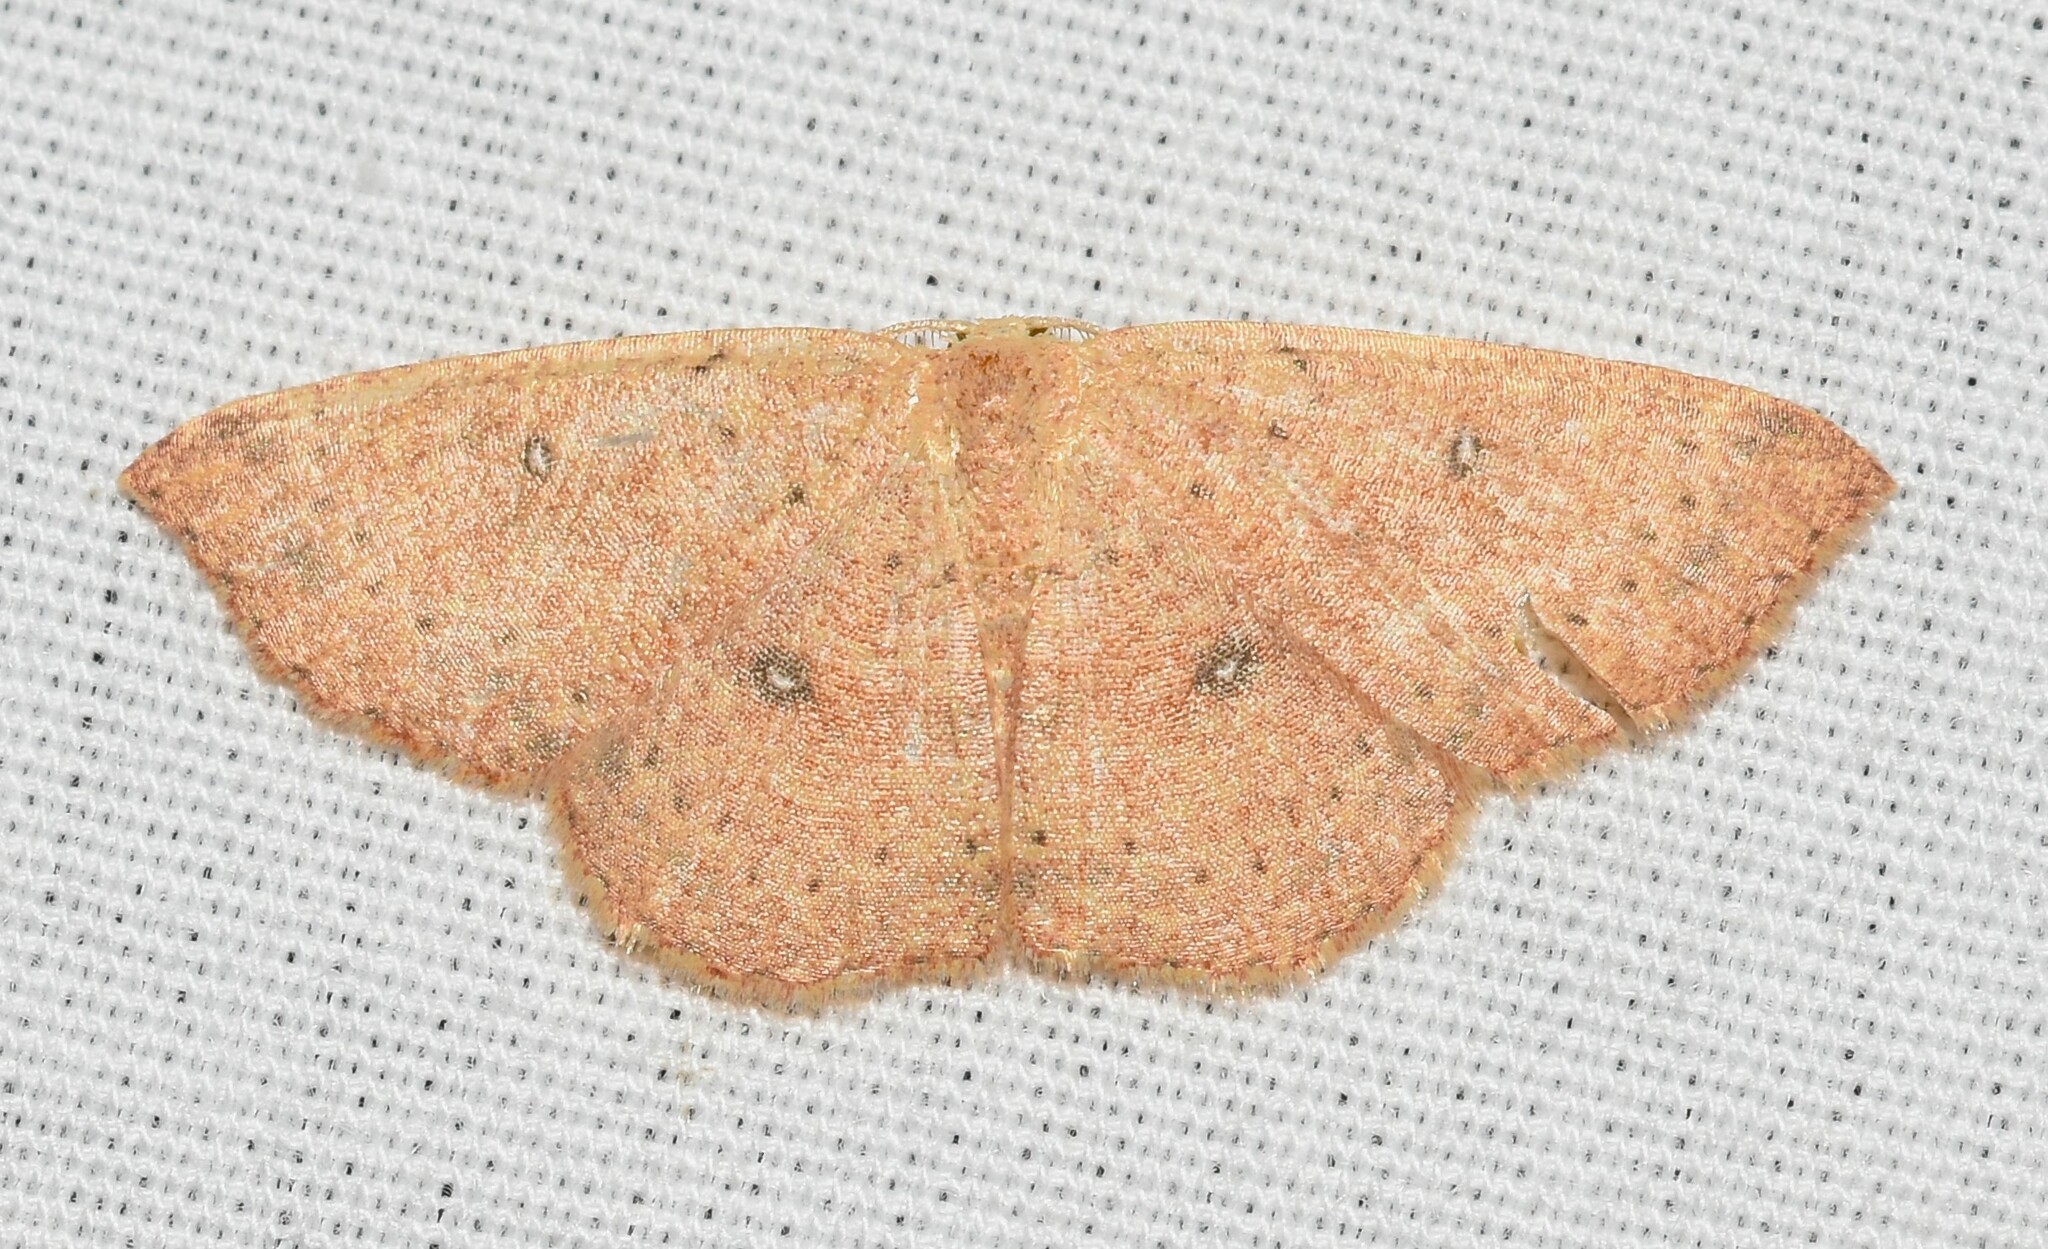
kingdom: Animalia
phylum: Arthropoda
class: Insecta
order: Lepidoptera
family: Geometridae
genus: Cyclophora
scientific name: Cyclophora packardi
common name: Packard's wave
